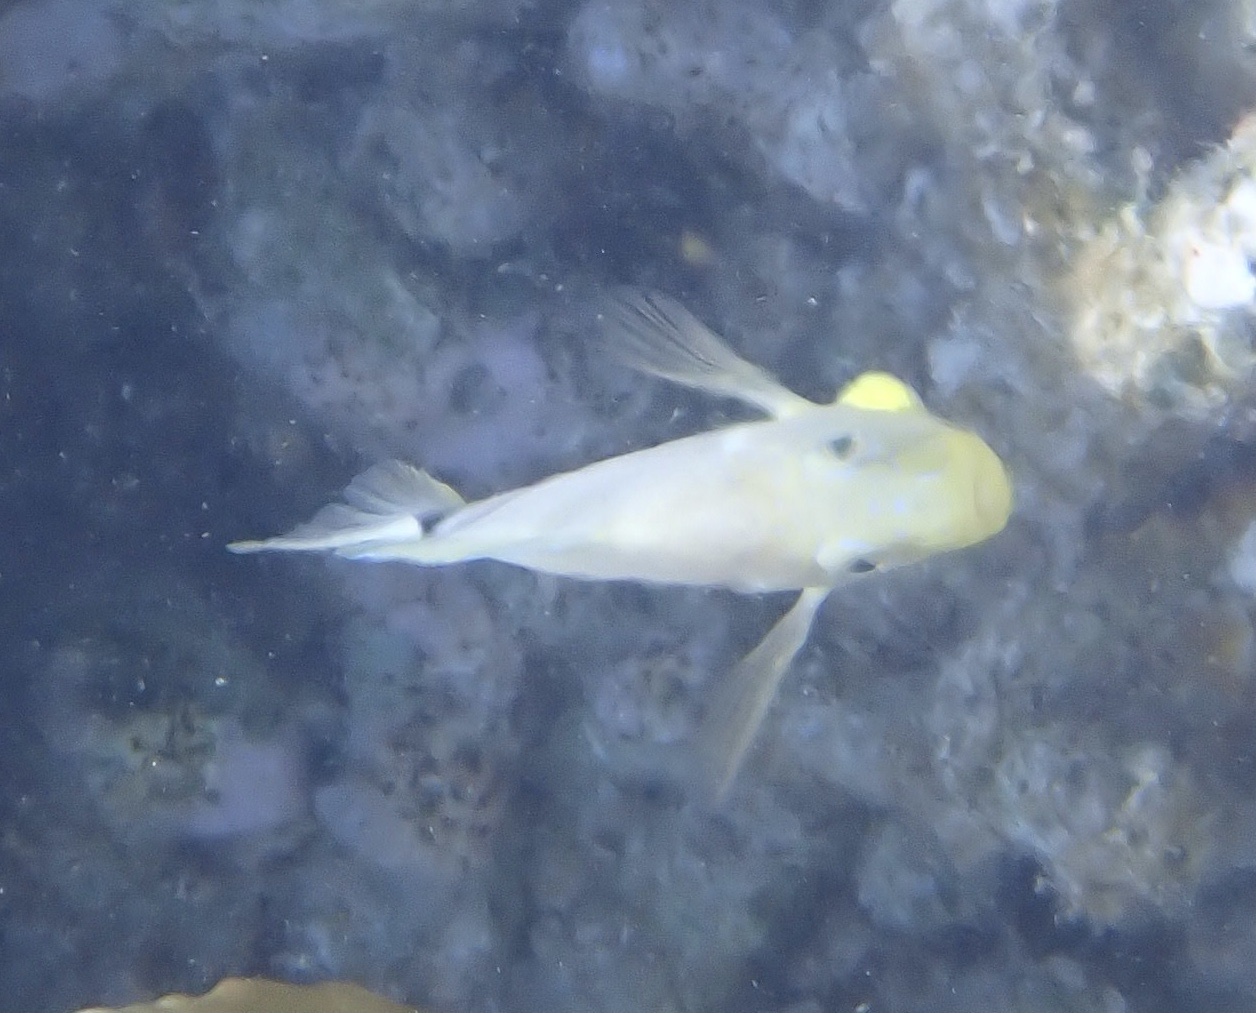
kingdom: Animalia
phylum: Chordata
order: Perciformes
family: Serranidae
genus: Hypoplectrus
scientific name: Hypoplectrus unicolor
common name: Butter hamlet
